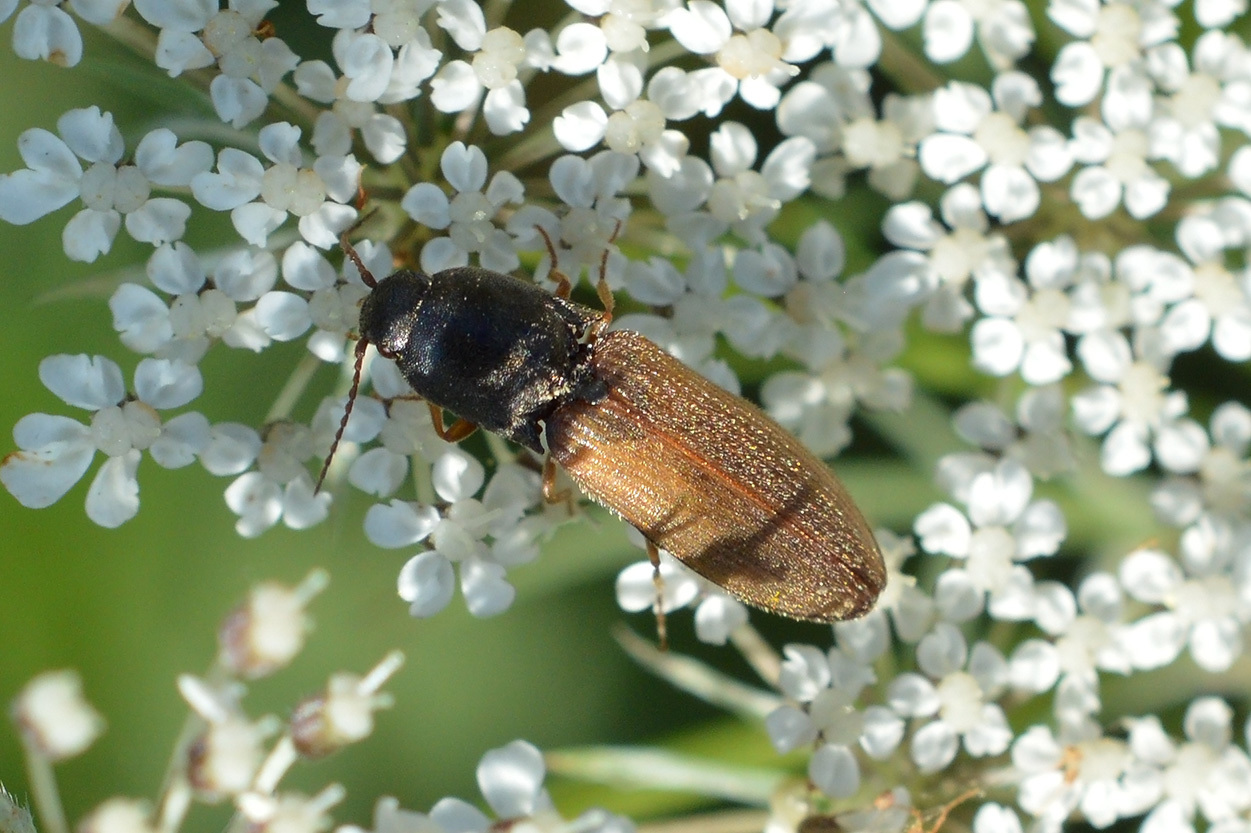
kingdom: Animalia
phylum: Arthropoda
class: Insecta
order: Coleoptera
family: Elateridae
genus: Agriotes
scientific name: Agriotes ustulatus
